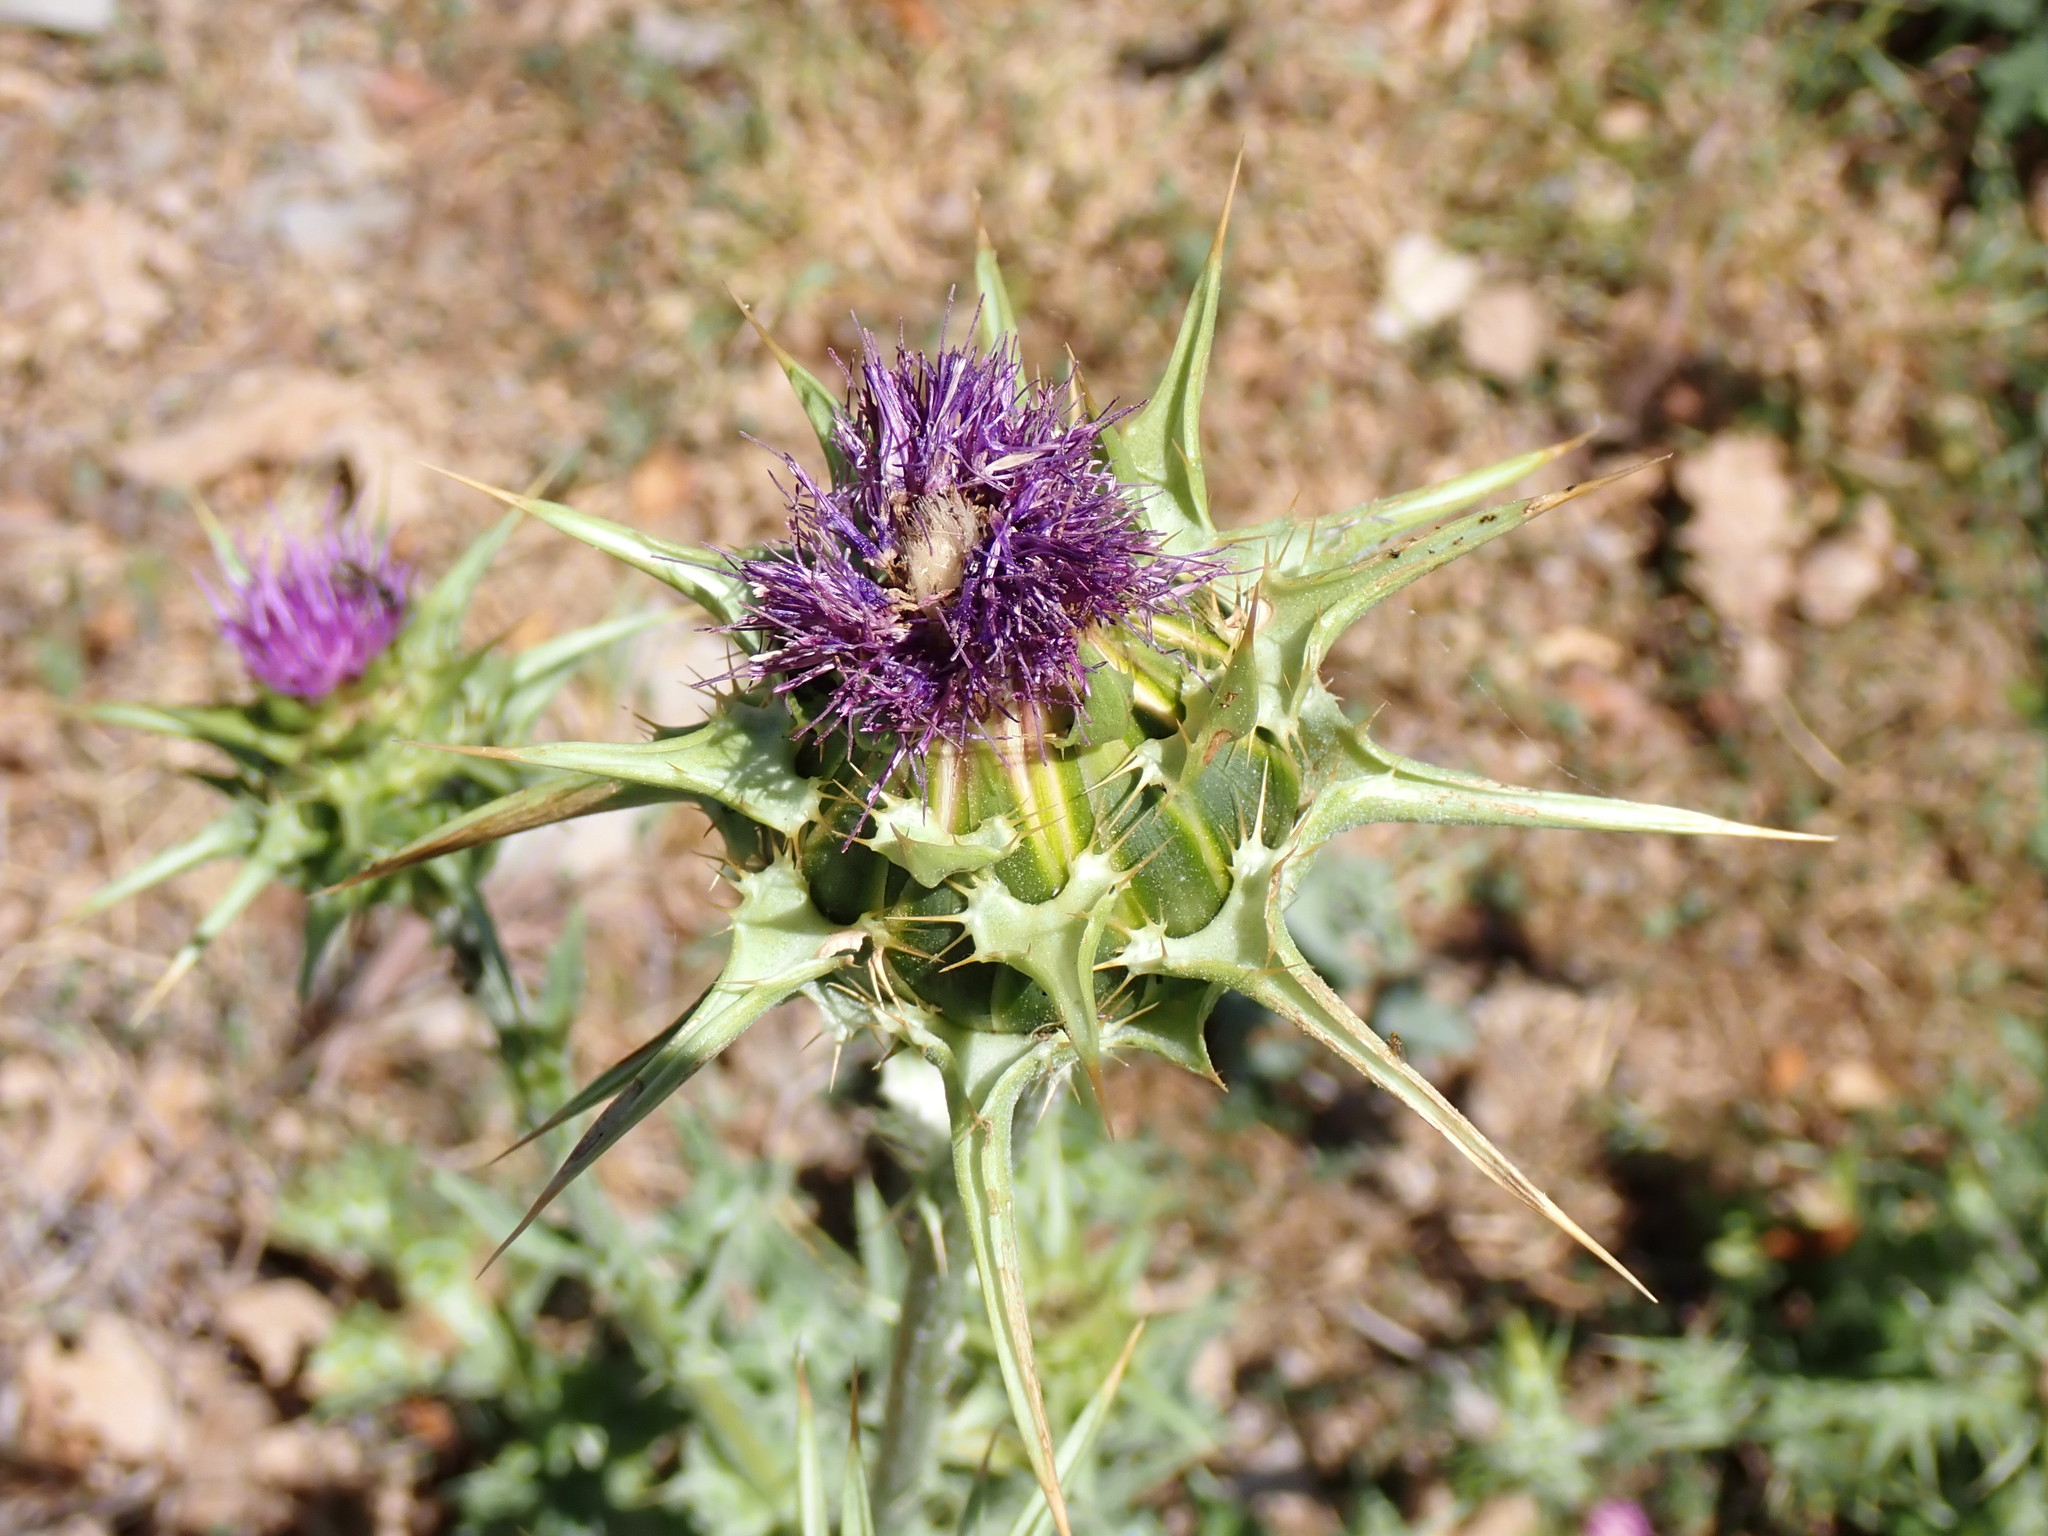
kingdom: Plantae
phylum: Tracheophyta
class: Magnoliopsida
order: Asterales
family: Asteraceae
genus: Silybum
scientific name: Silybum marianum
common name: Milk thistle
